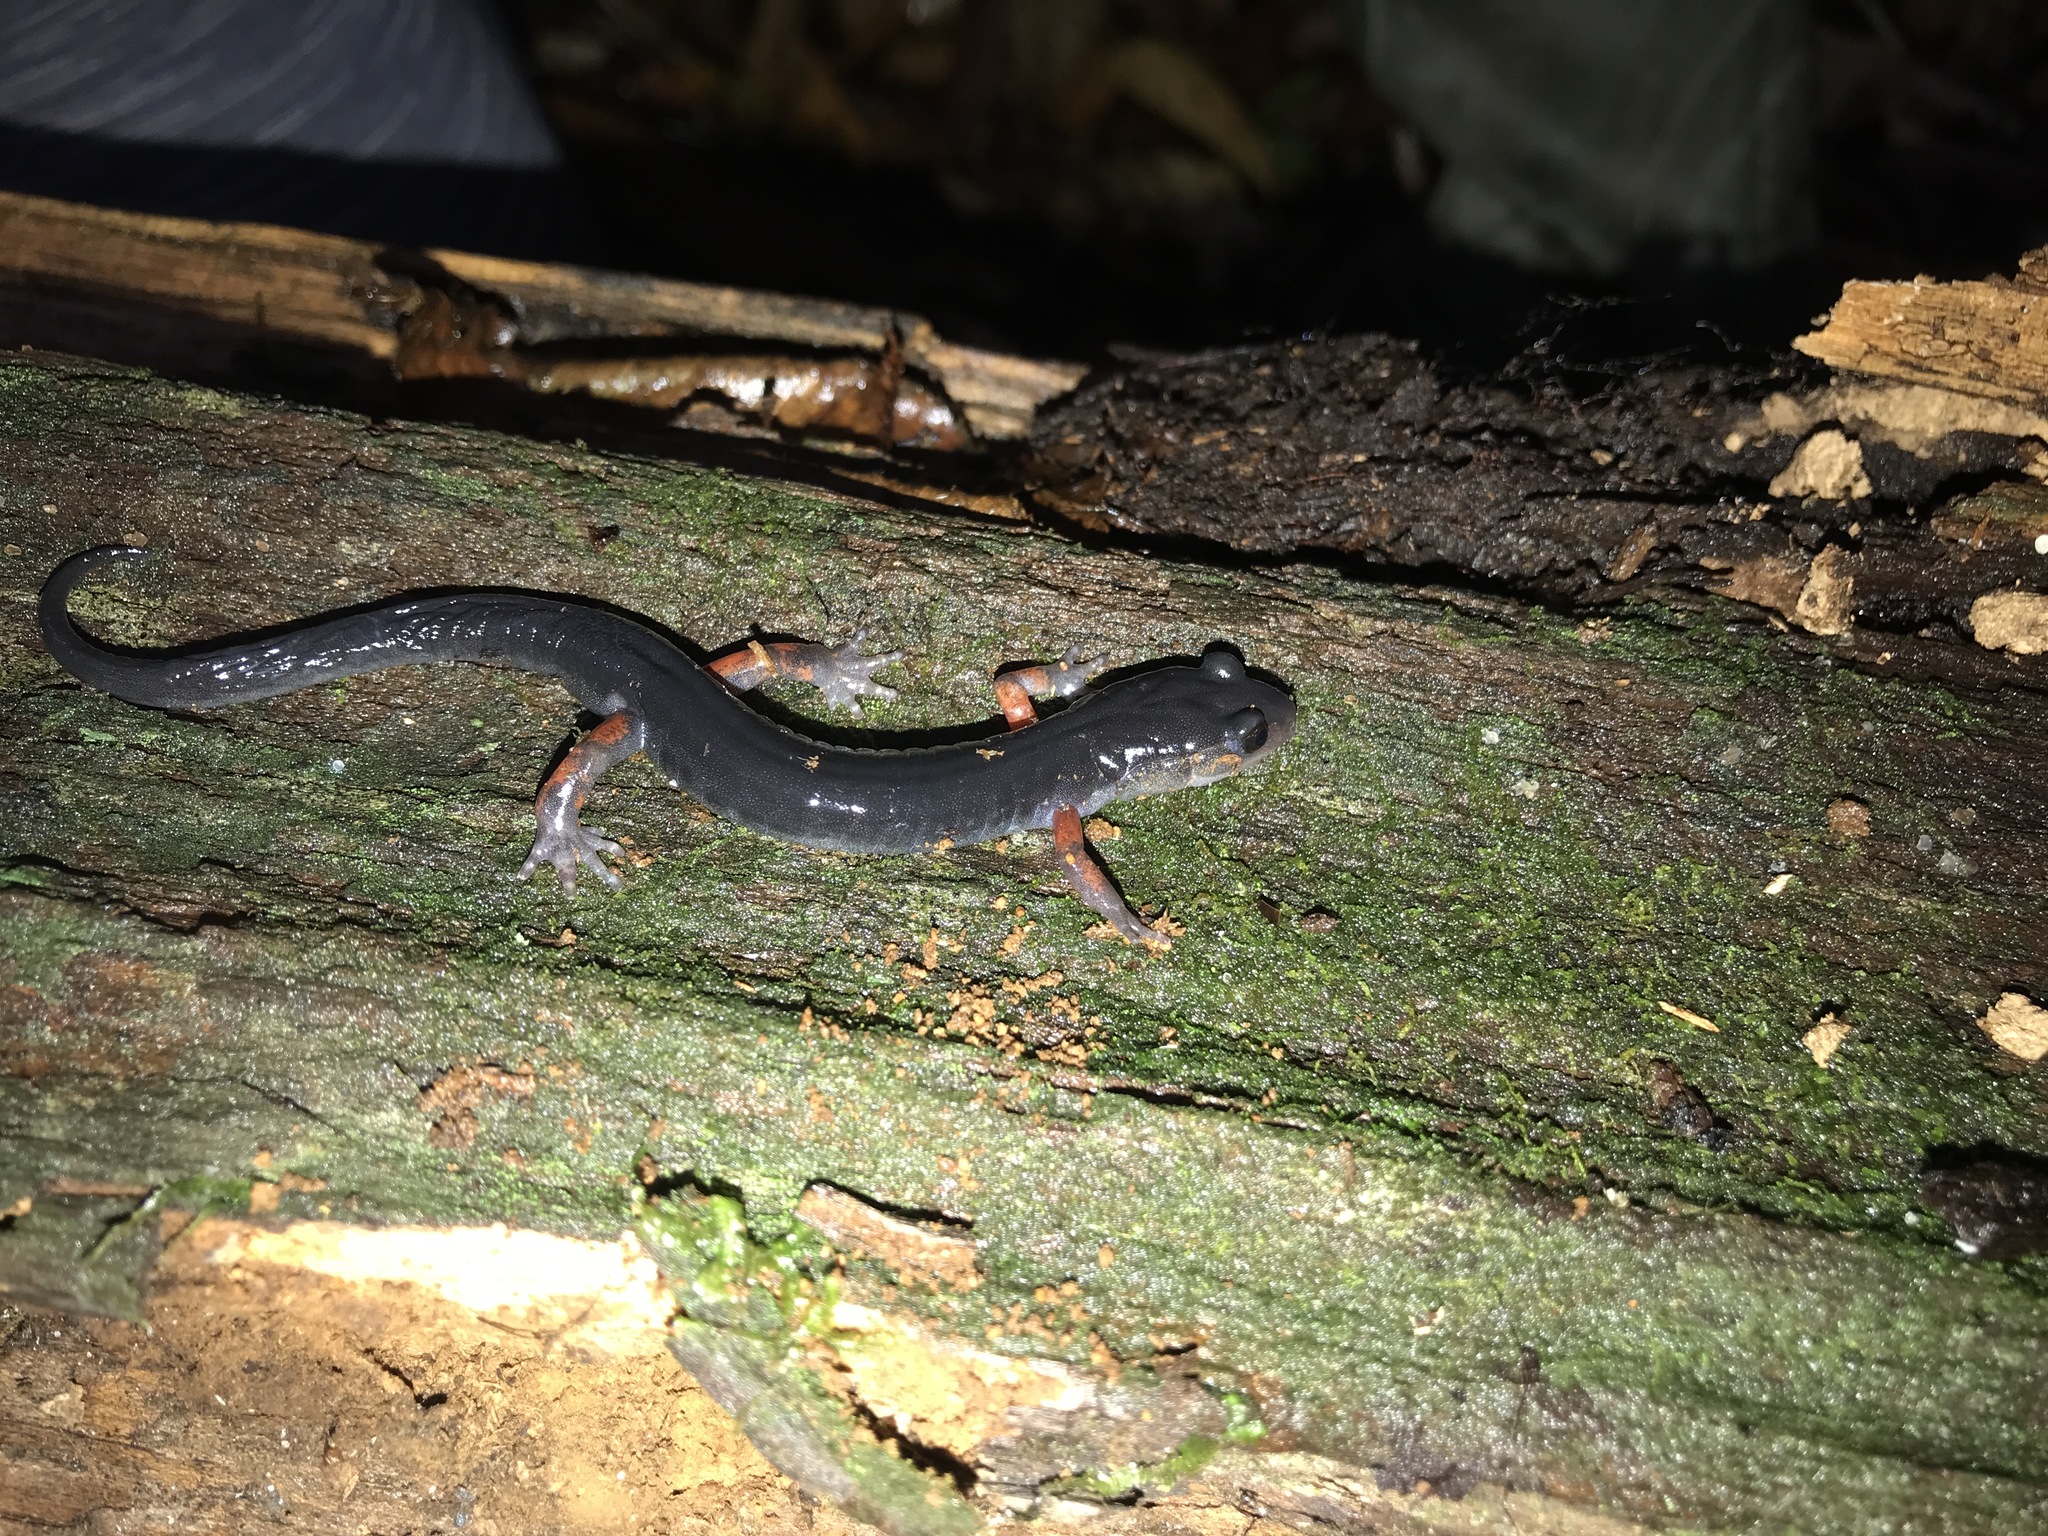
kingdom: Animalia
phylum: Chordata
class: Amphibia
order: Caudata
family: Plethodontidae
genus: Plethodon
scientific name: Plethodon shermani
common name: Red-legged salamander
